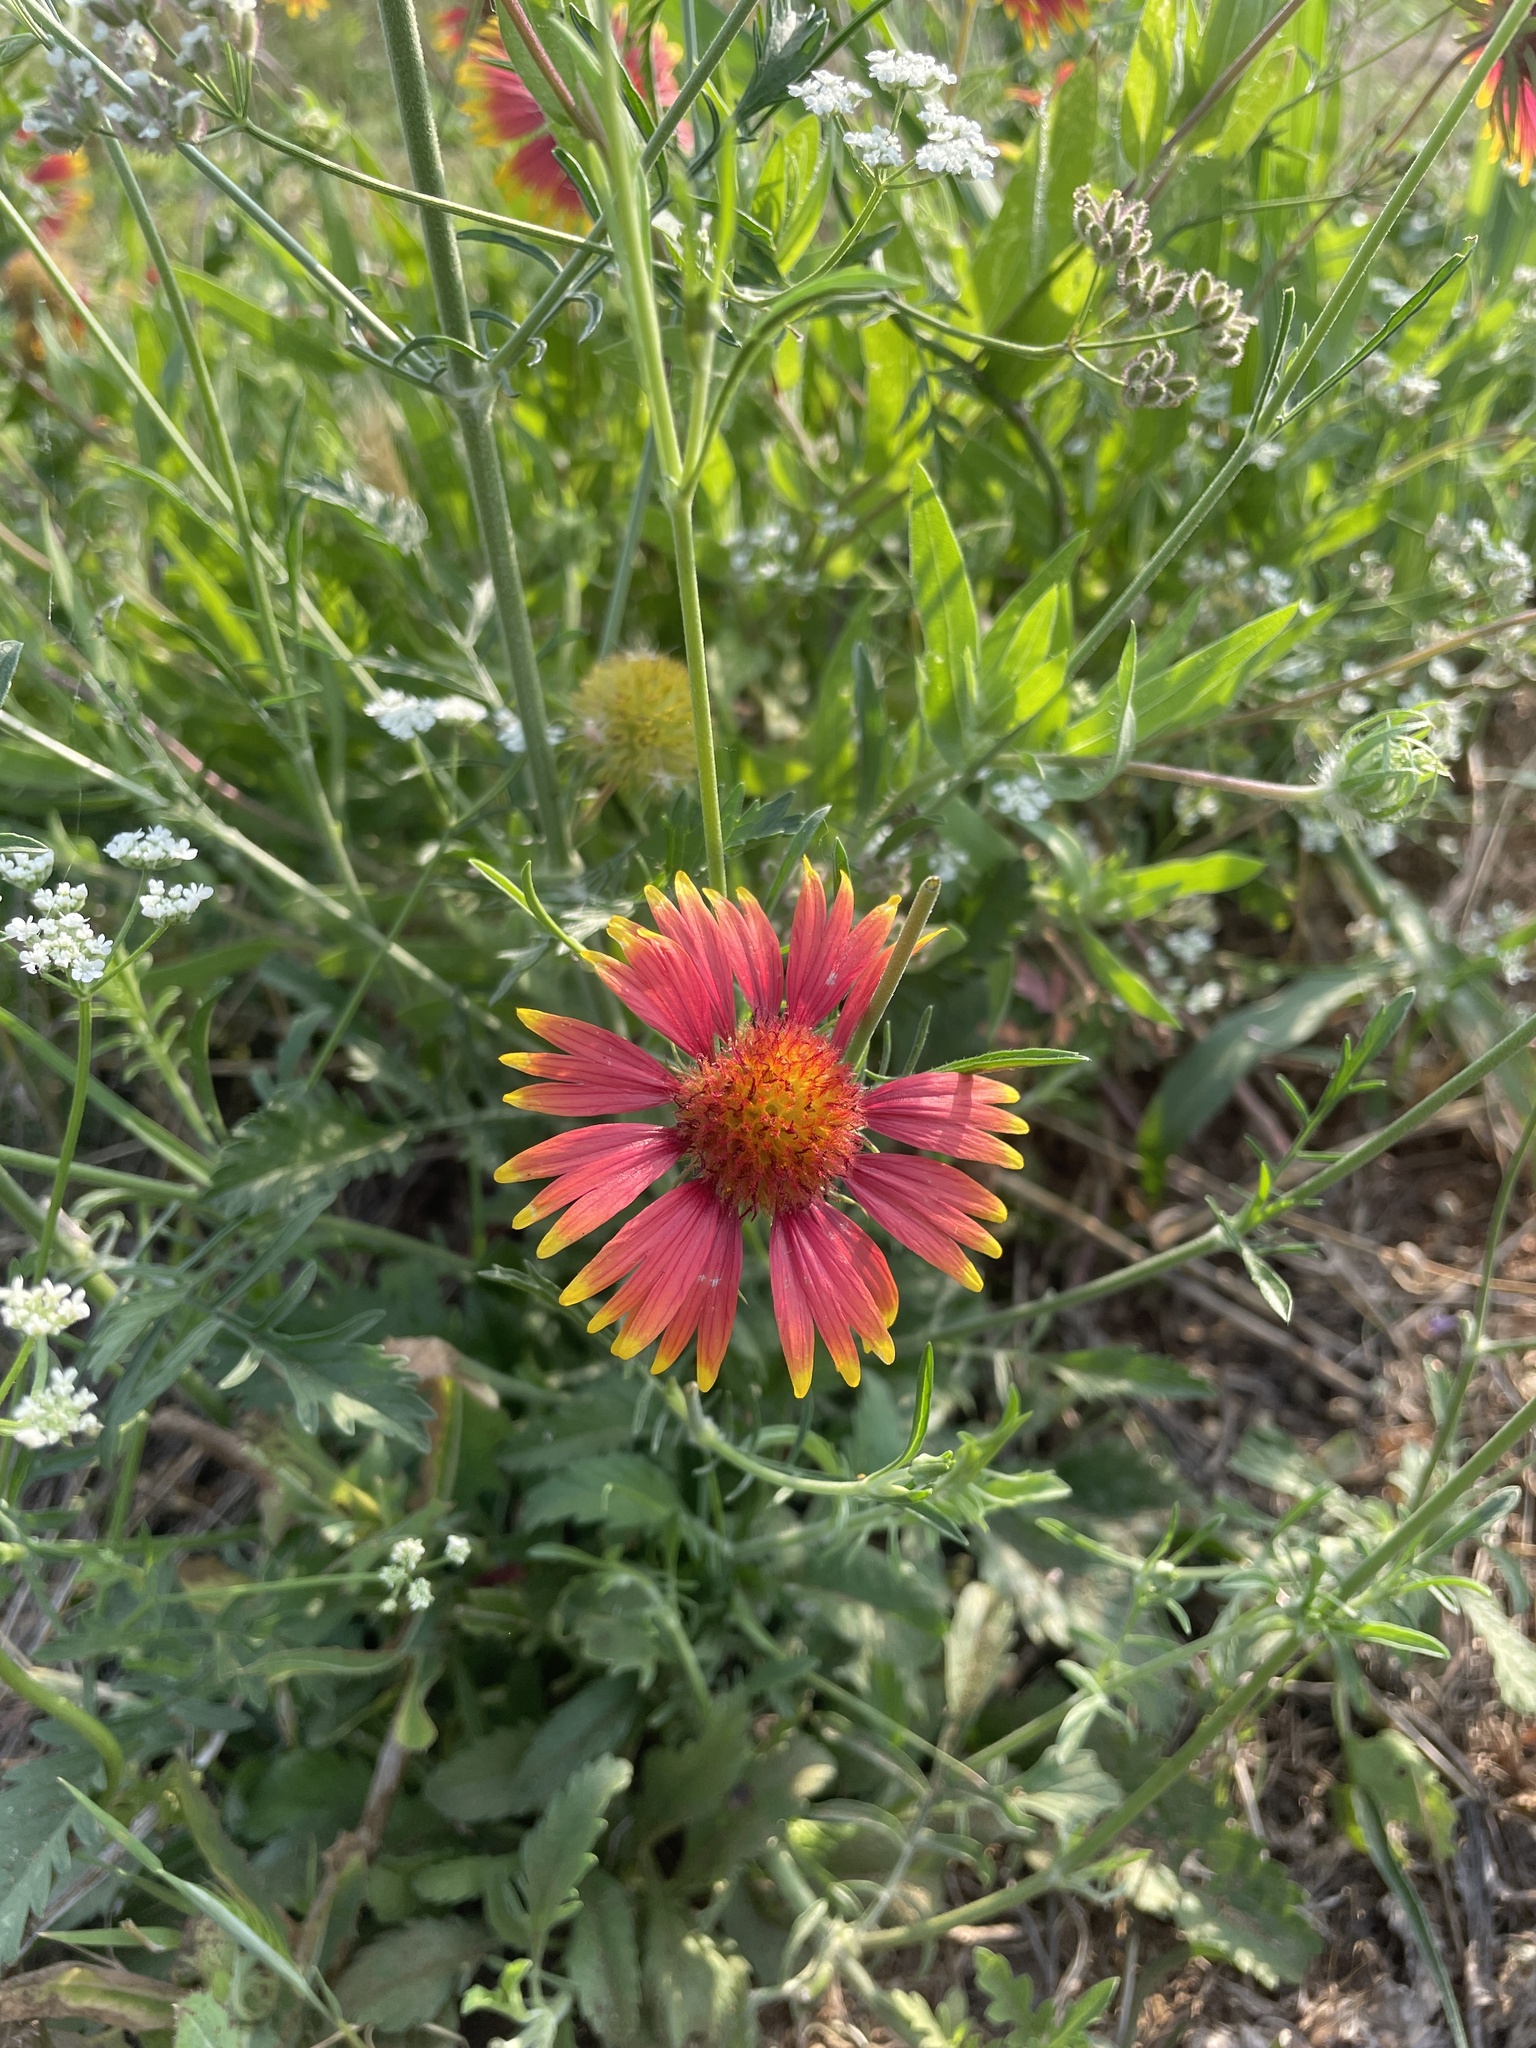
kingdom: Plantae
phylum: Tracheophyta
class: Magnoliopsida
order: Asterales
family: Asteraceae
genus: Gaillardia
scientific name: Gaillardia pulchella
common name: Firewheel
